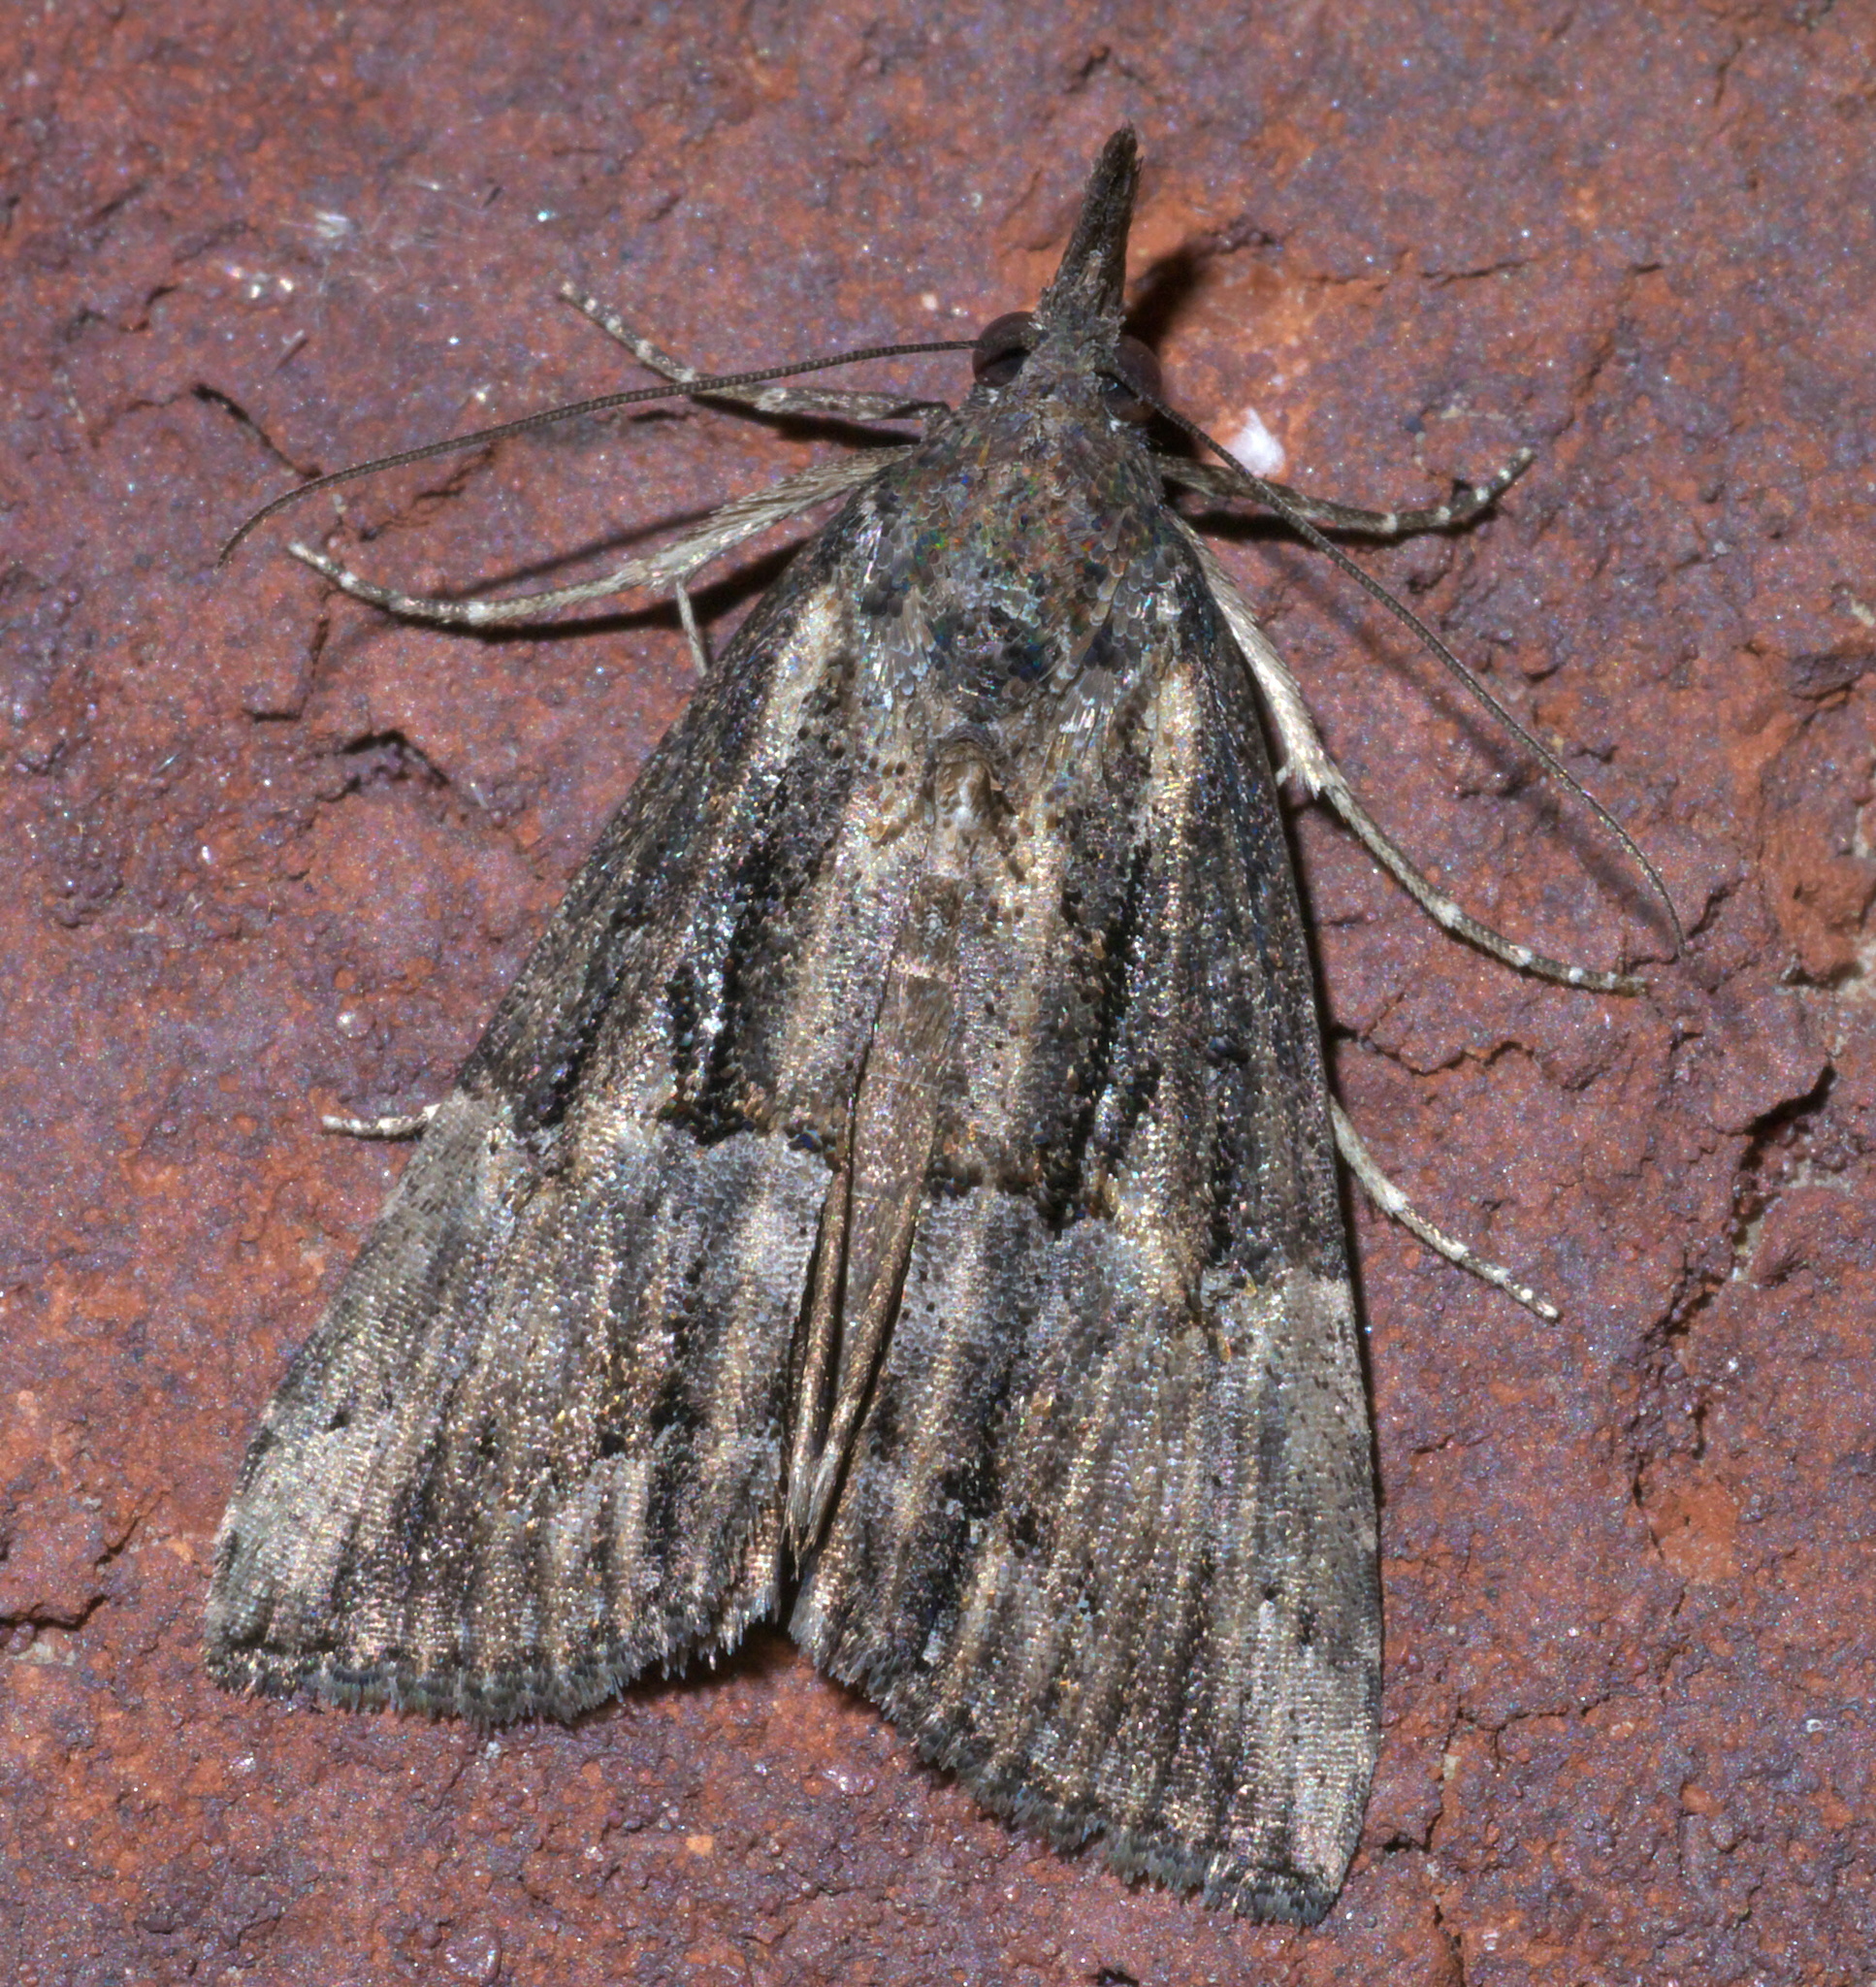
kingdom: Animalia
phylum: Arthropoda
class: Insecta
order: Lepidoptera
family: Erebidae
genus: Hypena
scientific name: Hypena scabra
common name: Green cloverworm
